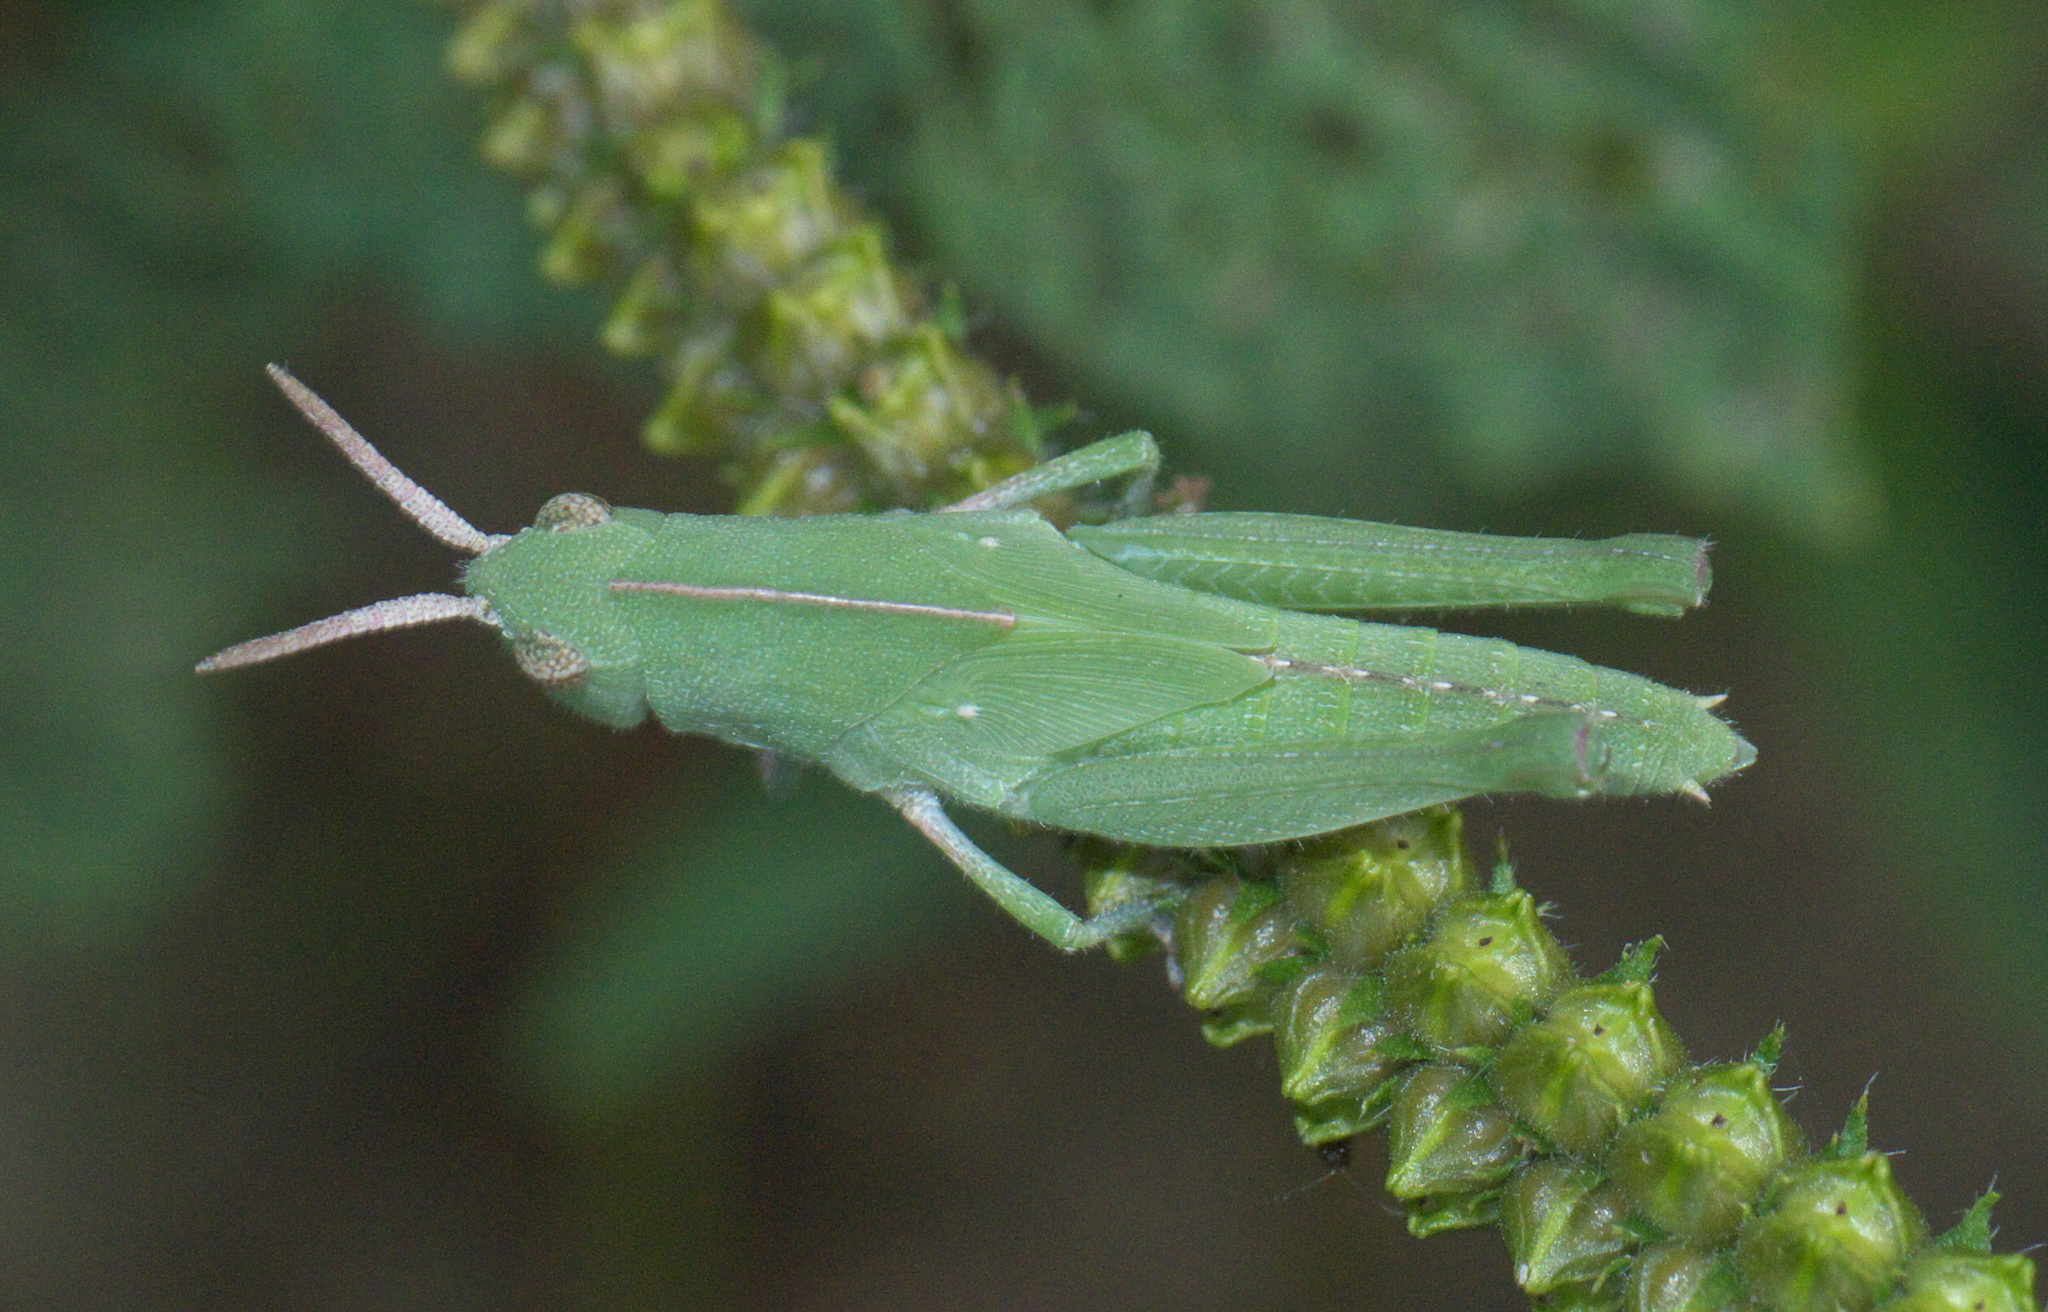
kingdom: Animalia
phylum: Arthropoda
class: Insecta
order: Orthoptera
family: Acrididae
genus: Chortophaga
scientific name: Chortophaga viridifasciata
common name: Green-striped grasshopper
